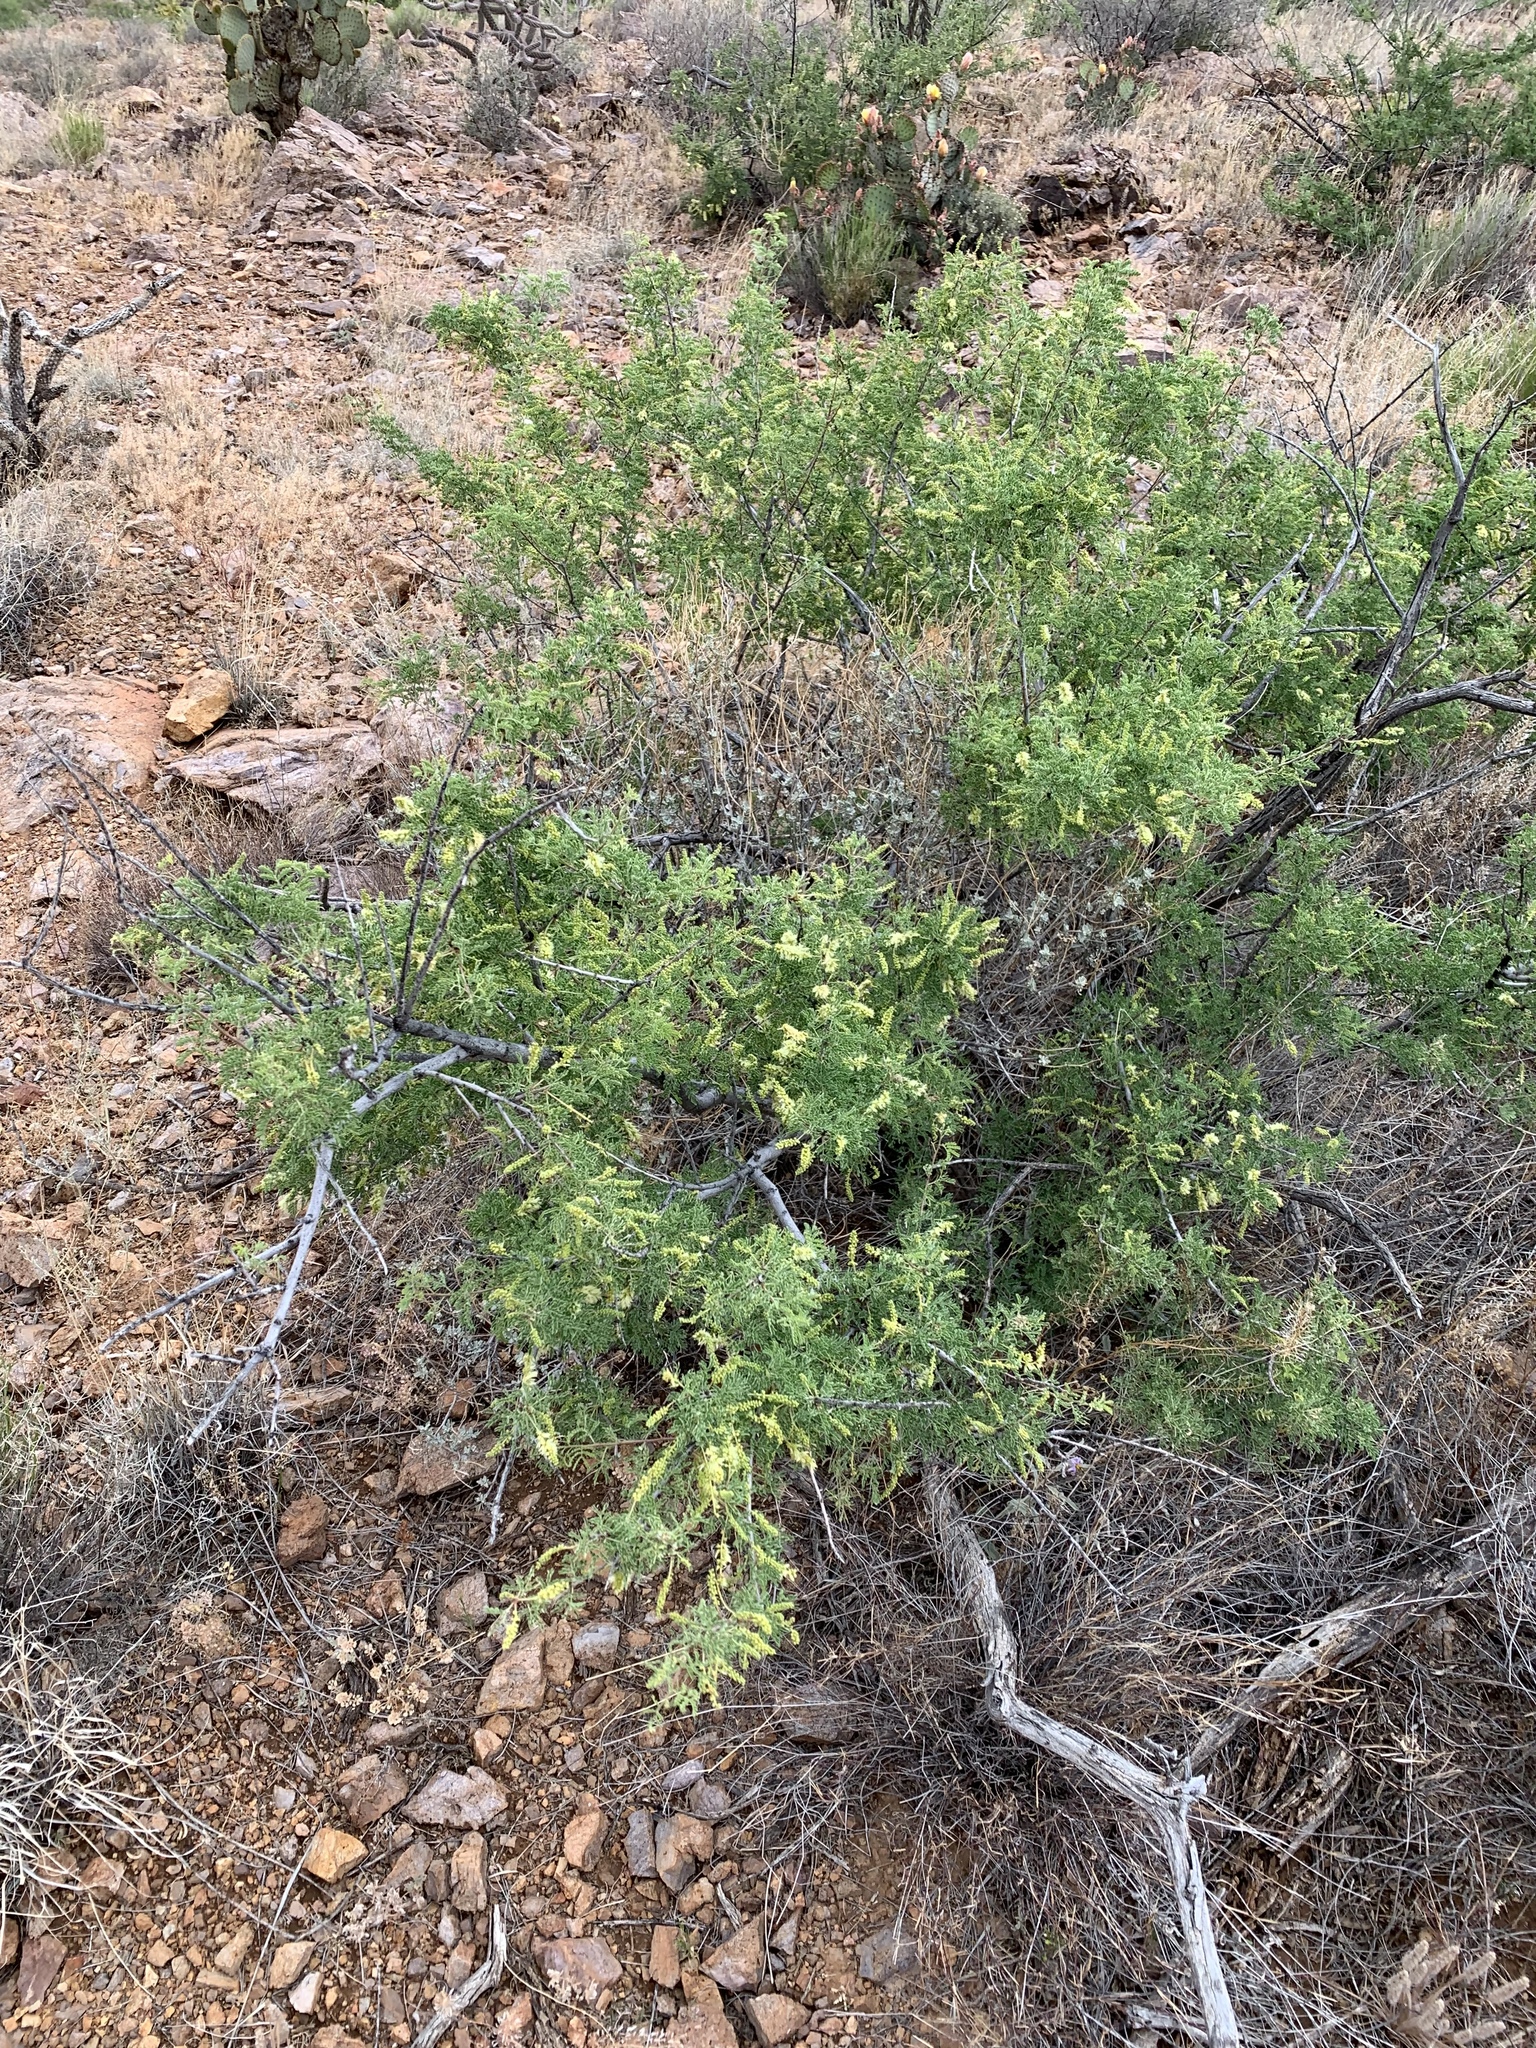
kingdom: Plantae
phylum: Tracheophyta
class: Magnoliopsida
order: Fabales
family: Fabaceae
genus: Senegalia
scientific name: Senegalia greggii
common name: Texas-mimosa
